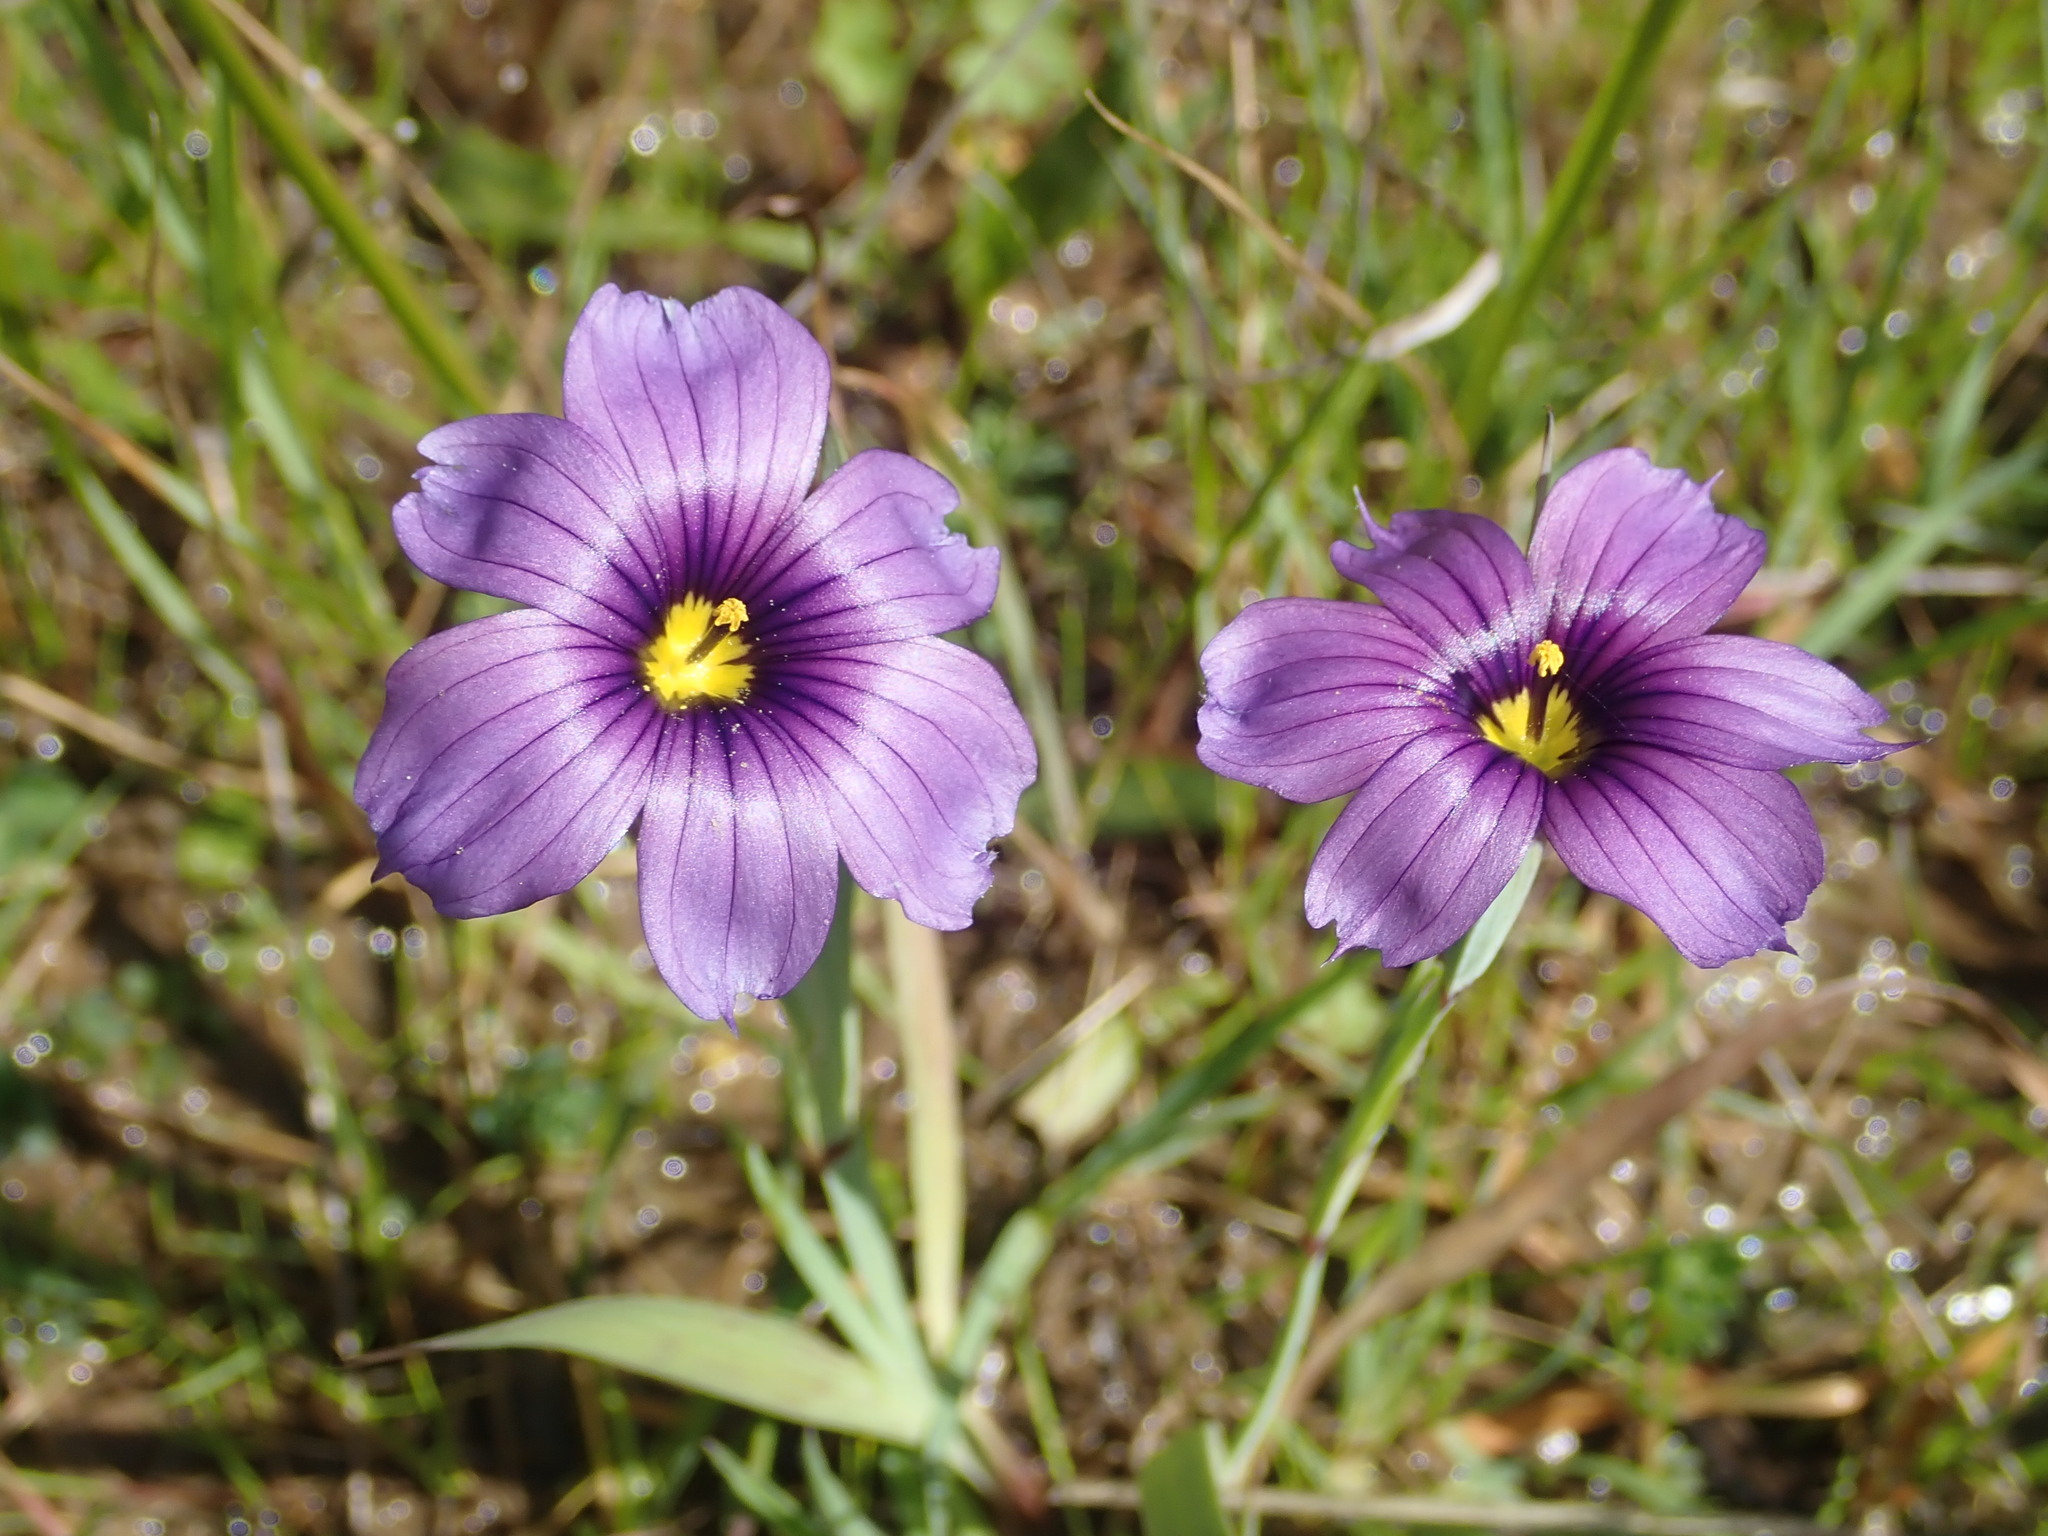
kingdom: Plantae
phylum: Tracheophyta
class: Liliopsida
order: Asparagales
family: Iridaceae
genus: Sisyrinchium
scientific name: Sisyrinchium bellum
